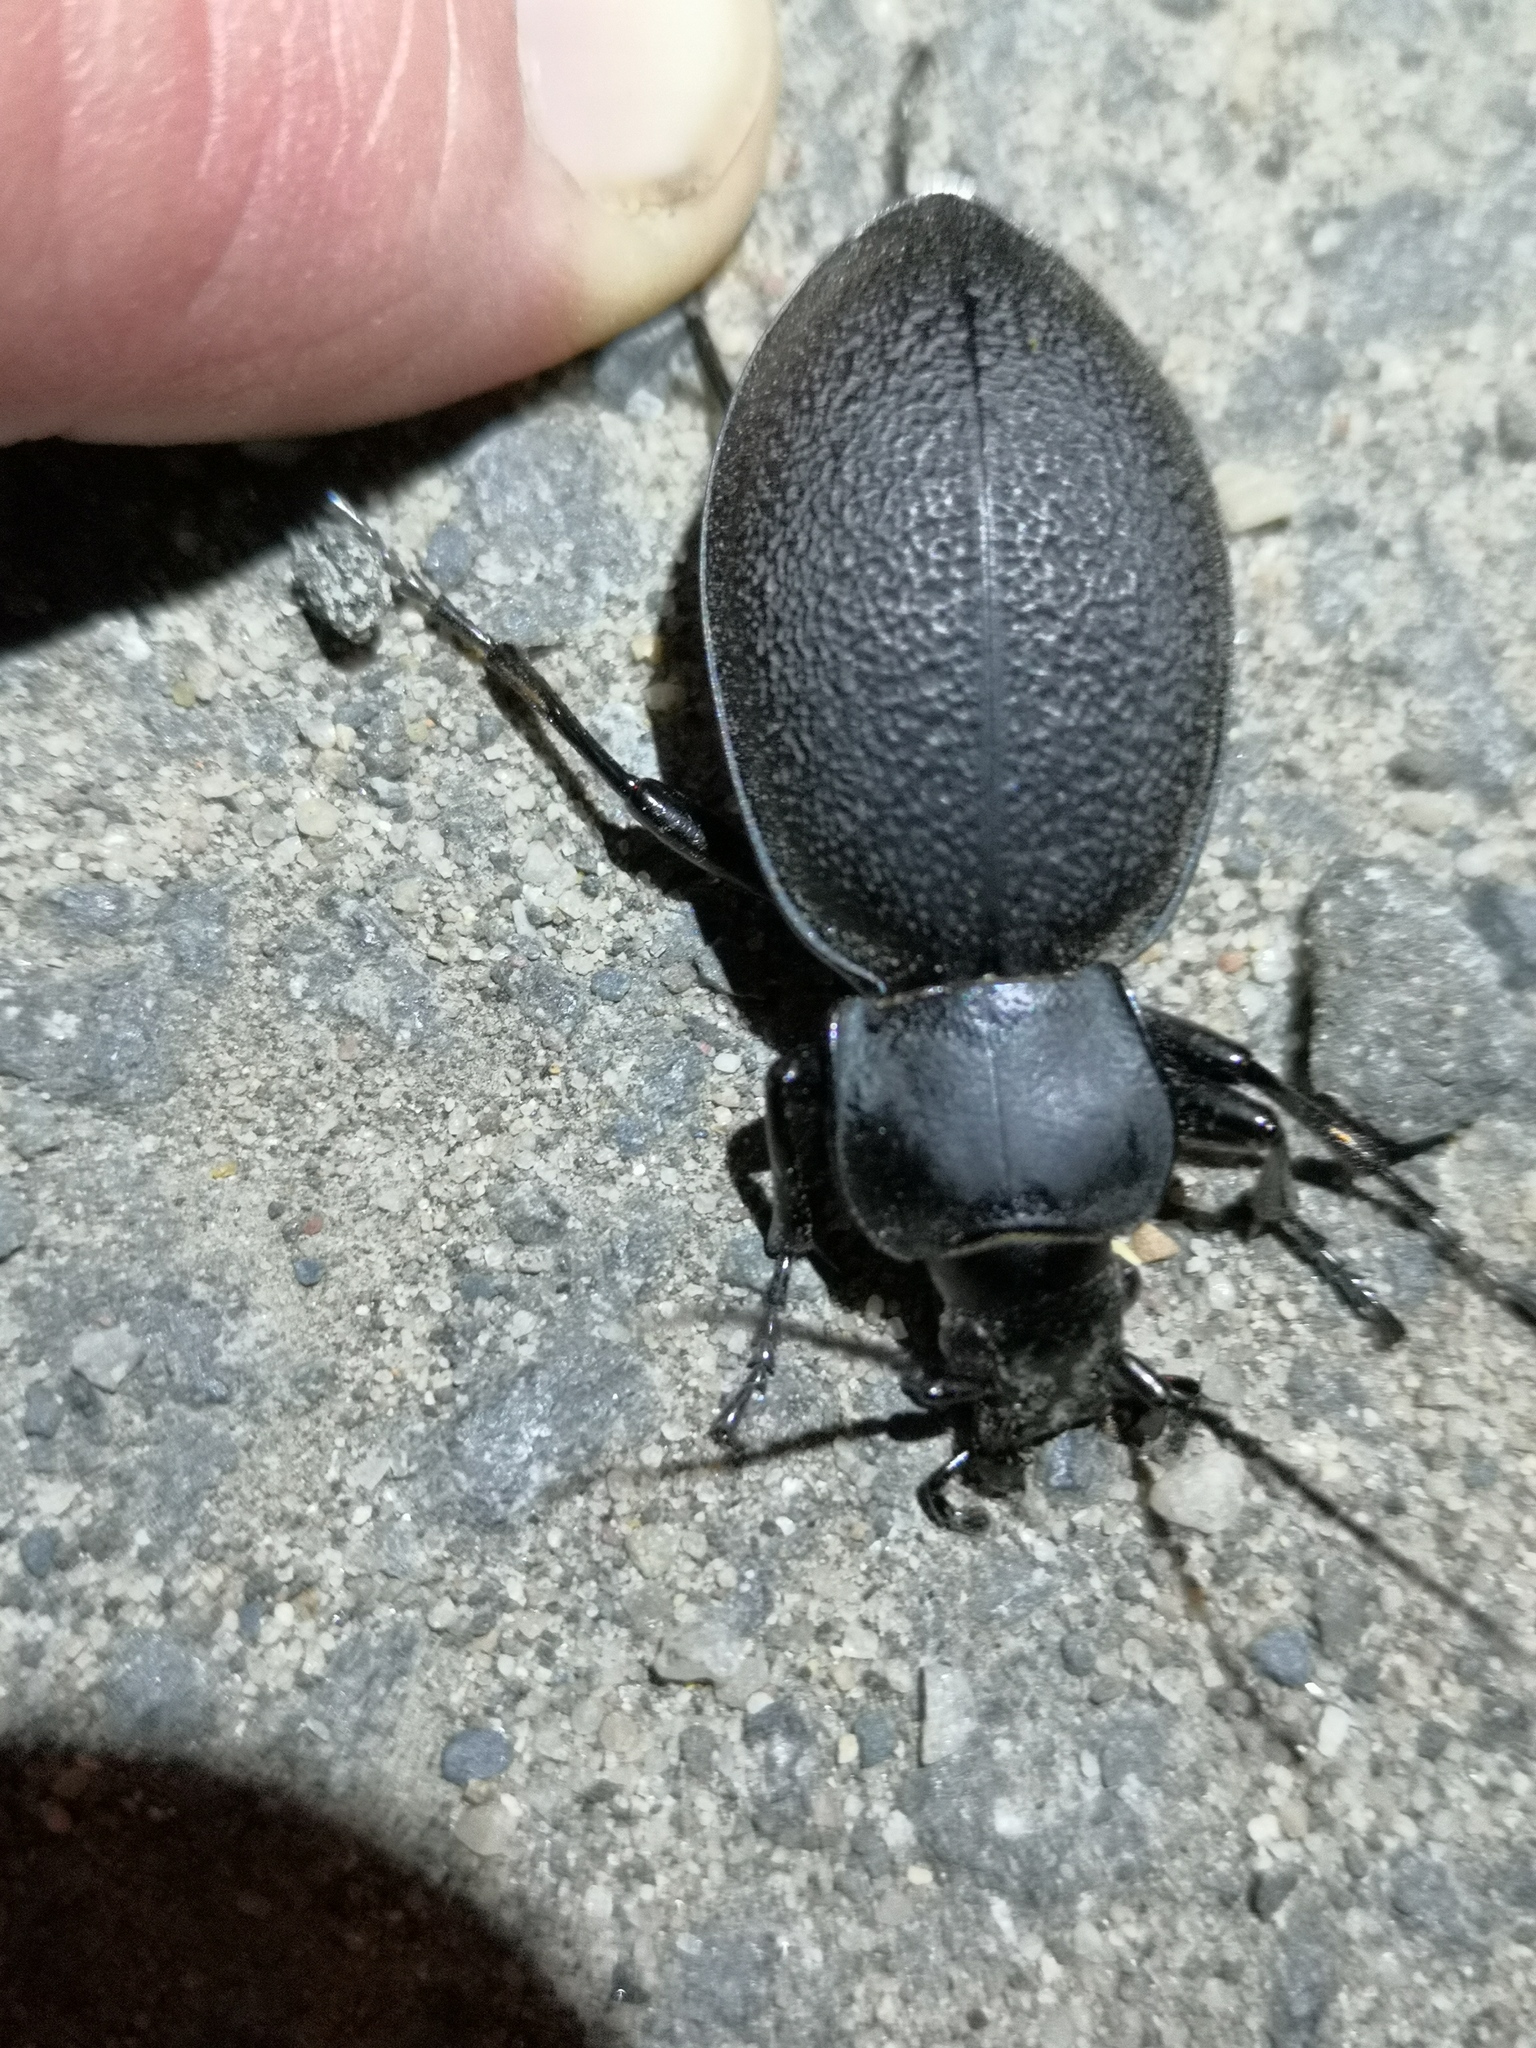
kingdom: Animalia
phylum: Arthropoda
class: Insecta
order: Coleoptera
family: Carabidae
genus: Carabus
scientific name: Carabus coriaceus
